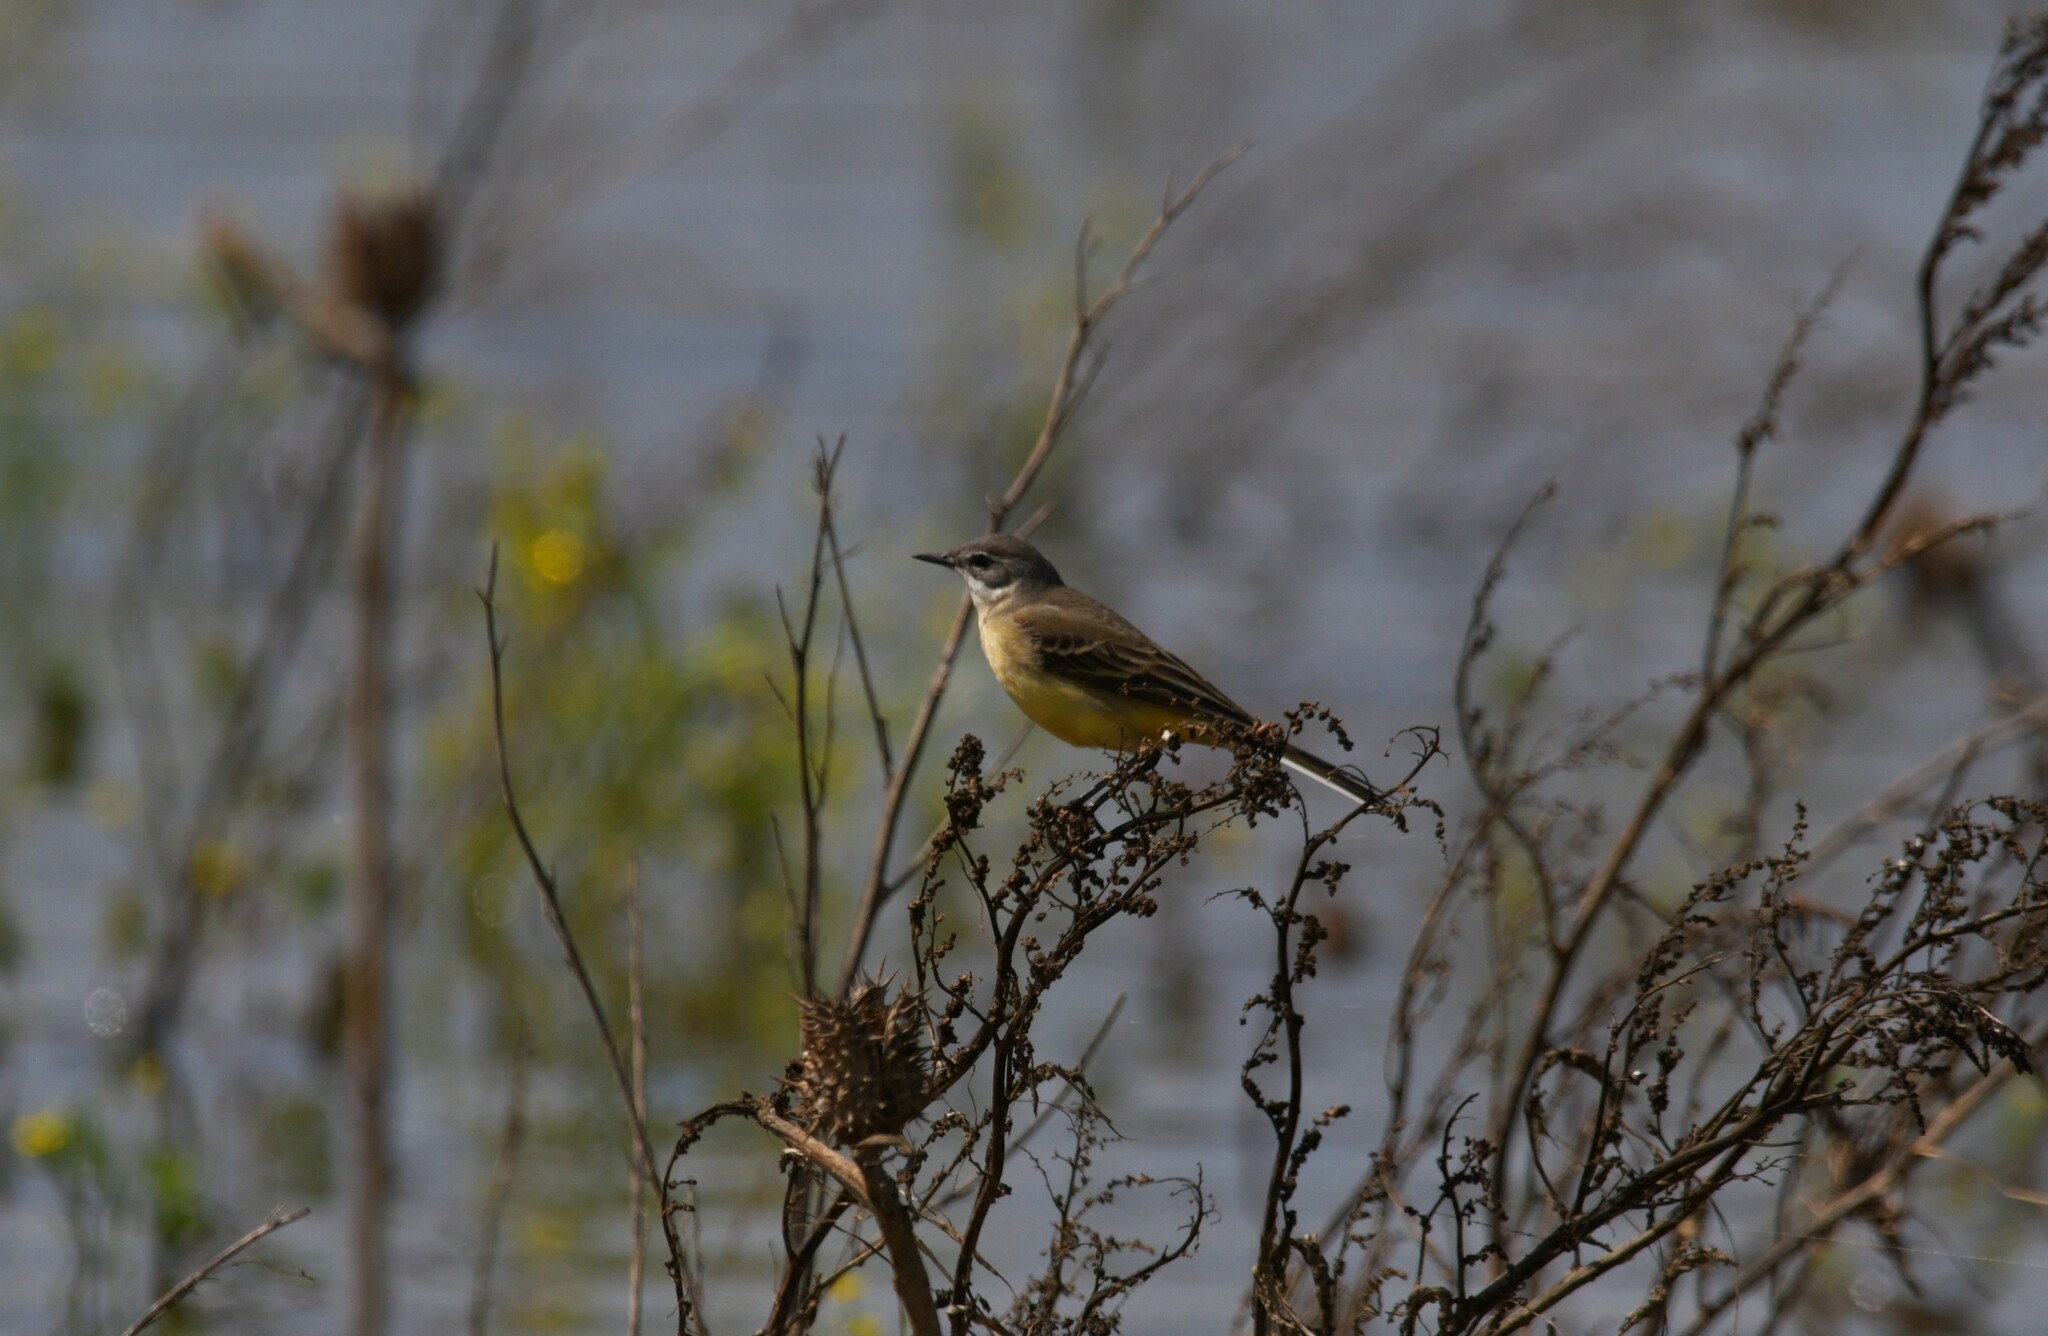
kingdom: Animalia
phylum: Chordata
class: Aves
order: Passeriformes
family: Motacillidae
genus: Motacilla
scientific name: Motacilla flava
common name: Western yellow wagtail
